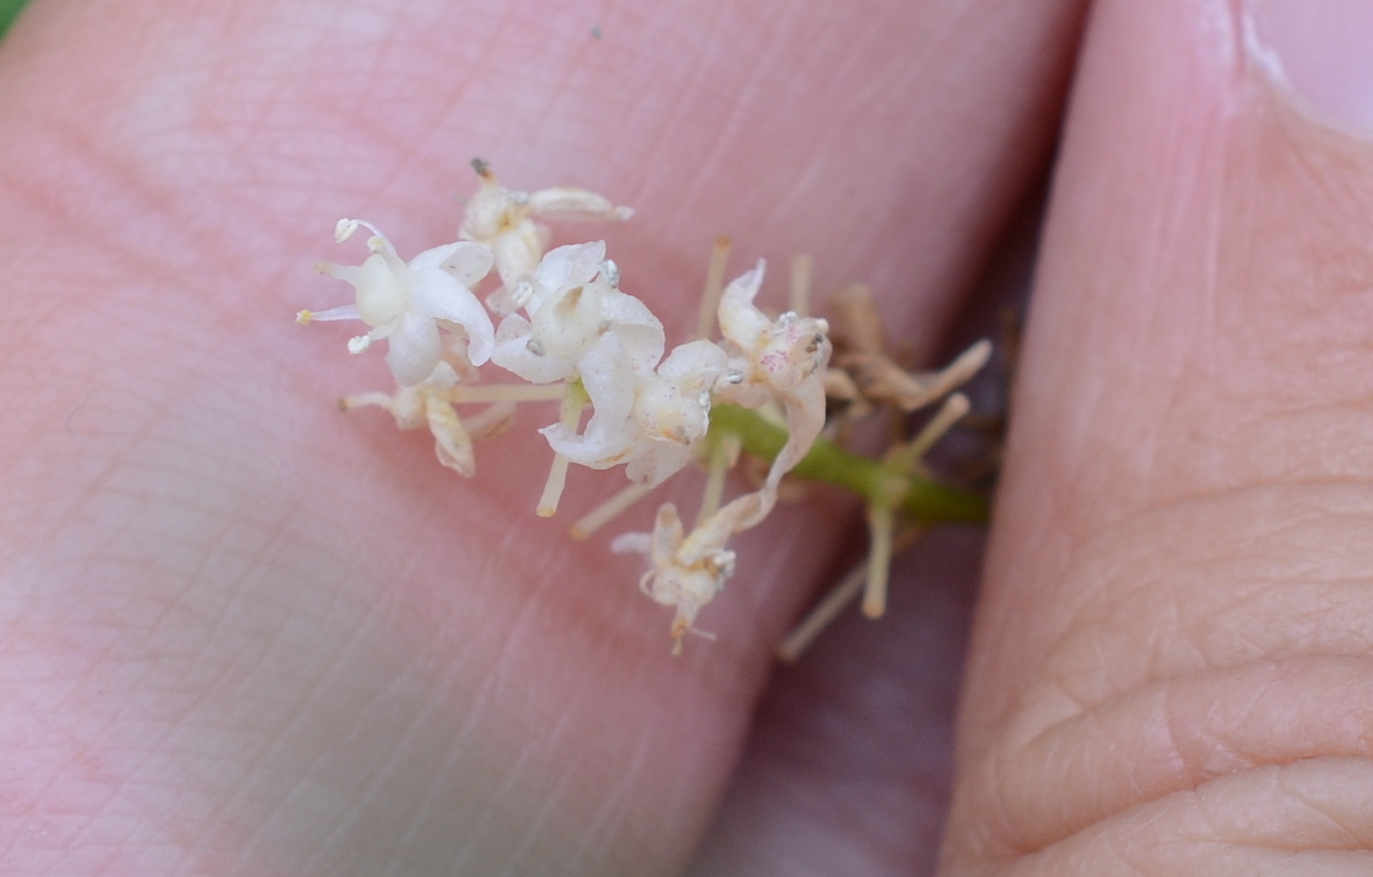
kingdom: Plantae
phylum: Tracheophyta
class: Liliopsida
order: Asparagales
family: Asparagaceae
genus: Maianthemum
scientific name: Maianthemum canadense
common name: False lily-of-the-valley
